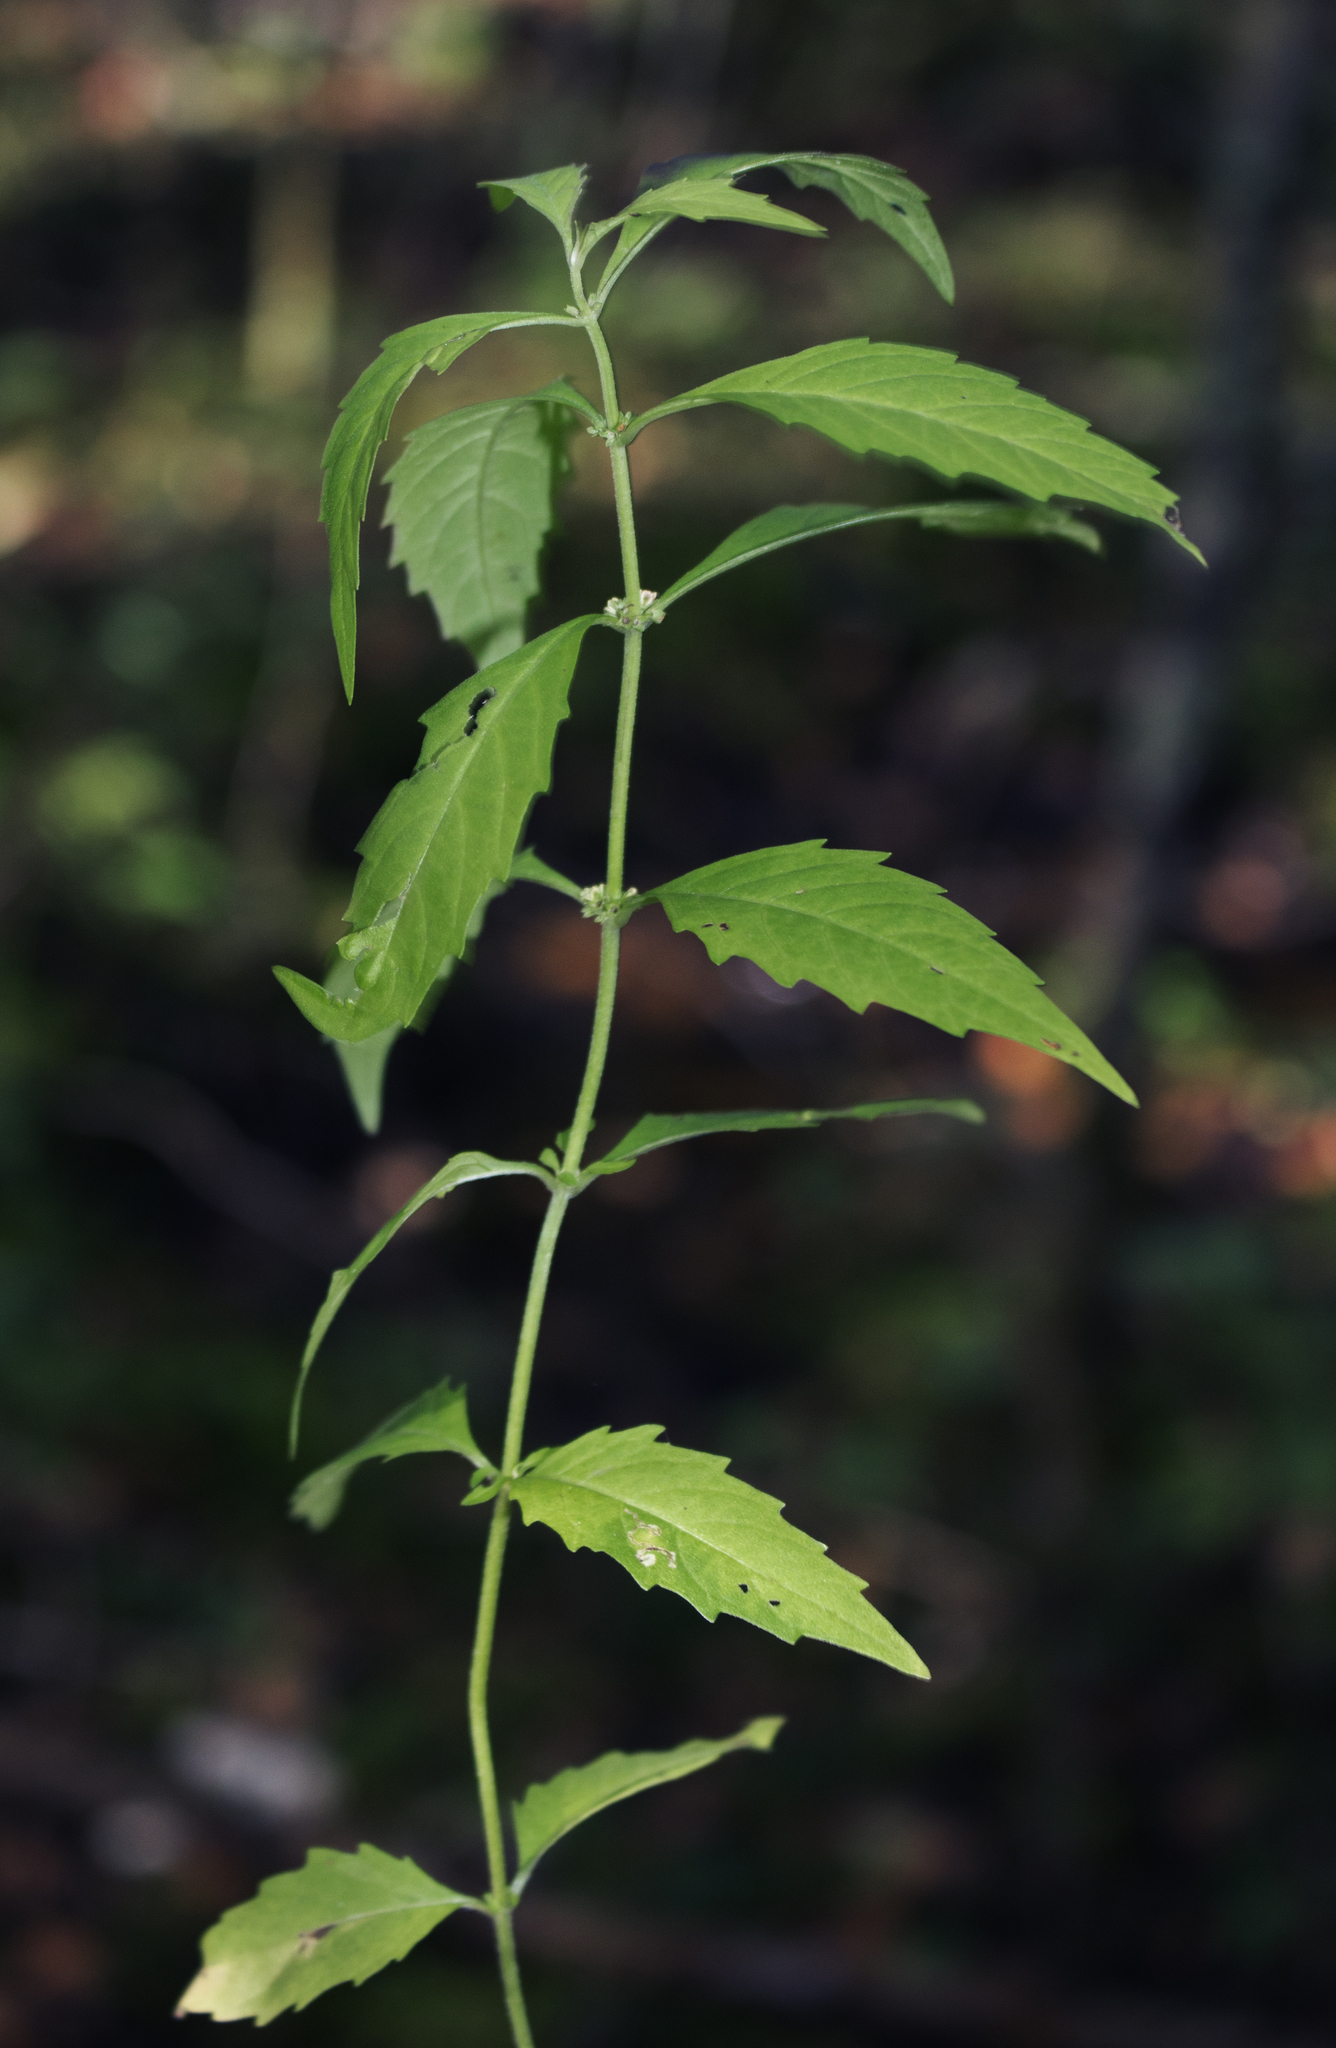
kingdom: Plantae
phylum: Tracheophyta
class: Magnoliopsida
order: Lamiales
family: Lamiaceae
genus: Lycopus
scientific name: Lycopus uniflorus
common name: Northern bugleweed
